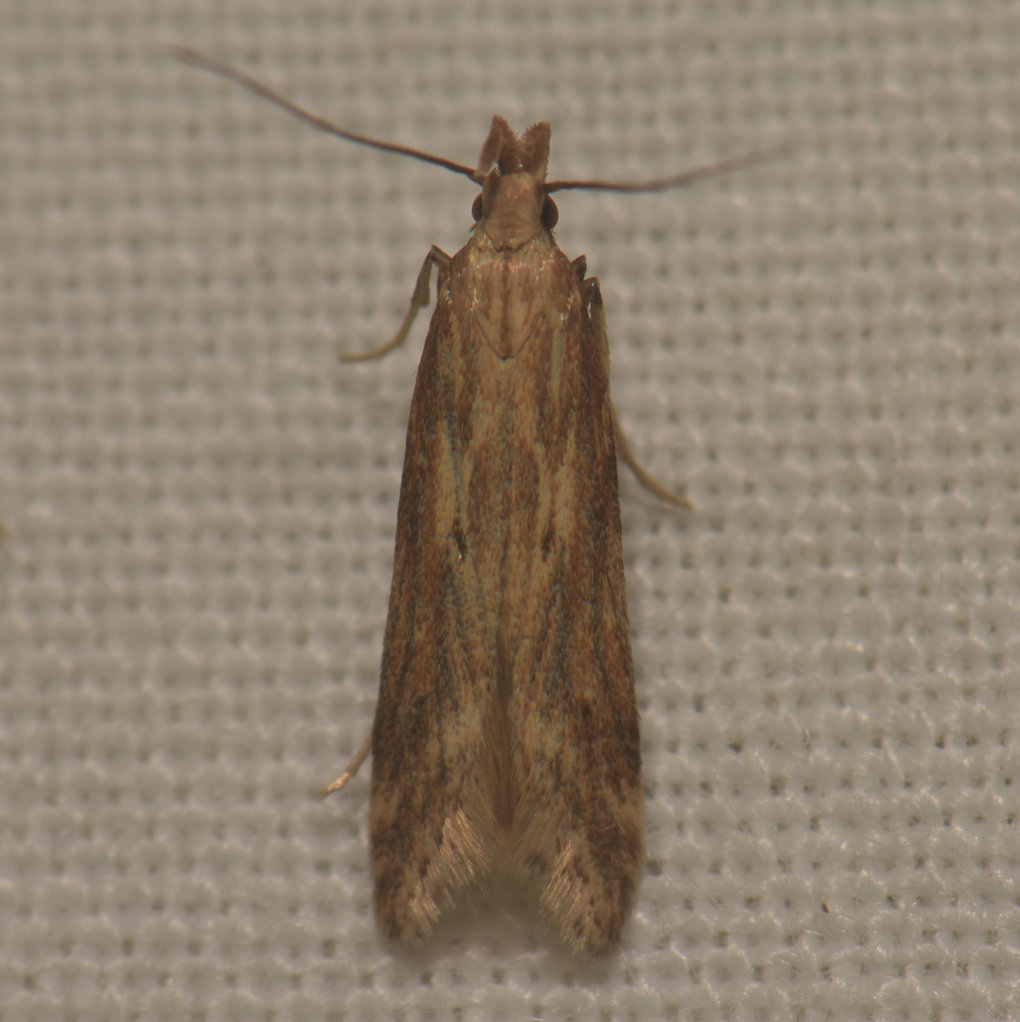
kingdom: Animalia
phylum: Arthropoda
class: Insecta
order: Lepidoptera
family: Gelechiidae
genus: Metzneria
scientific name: Metzneria lappella
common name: Burdock neb
